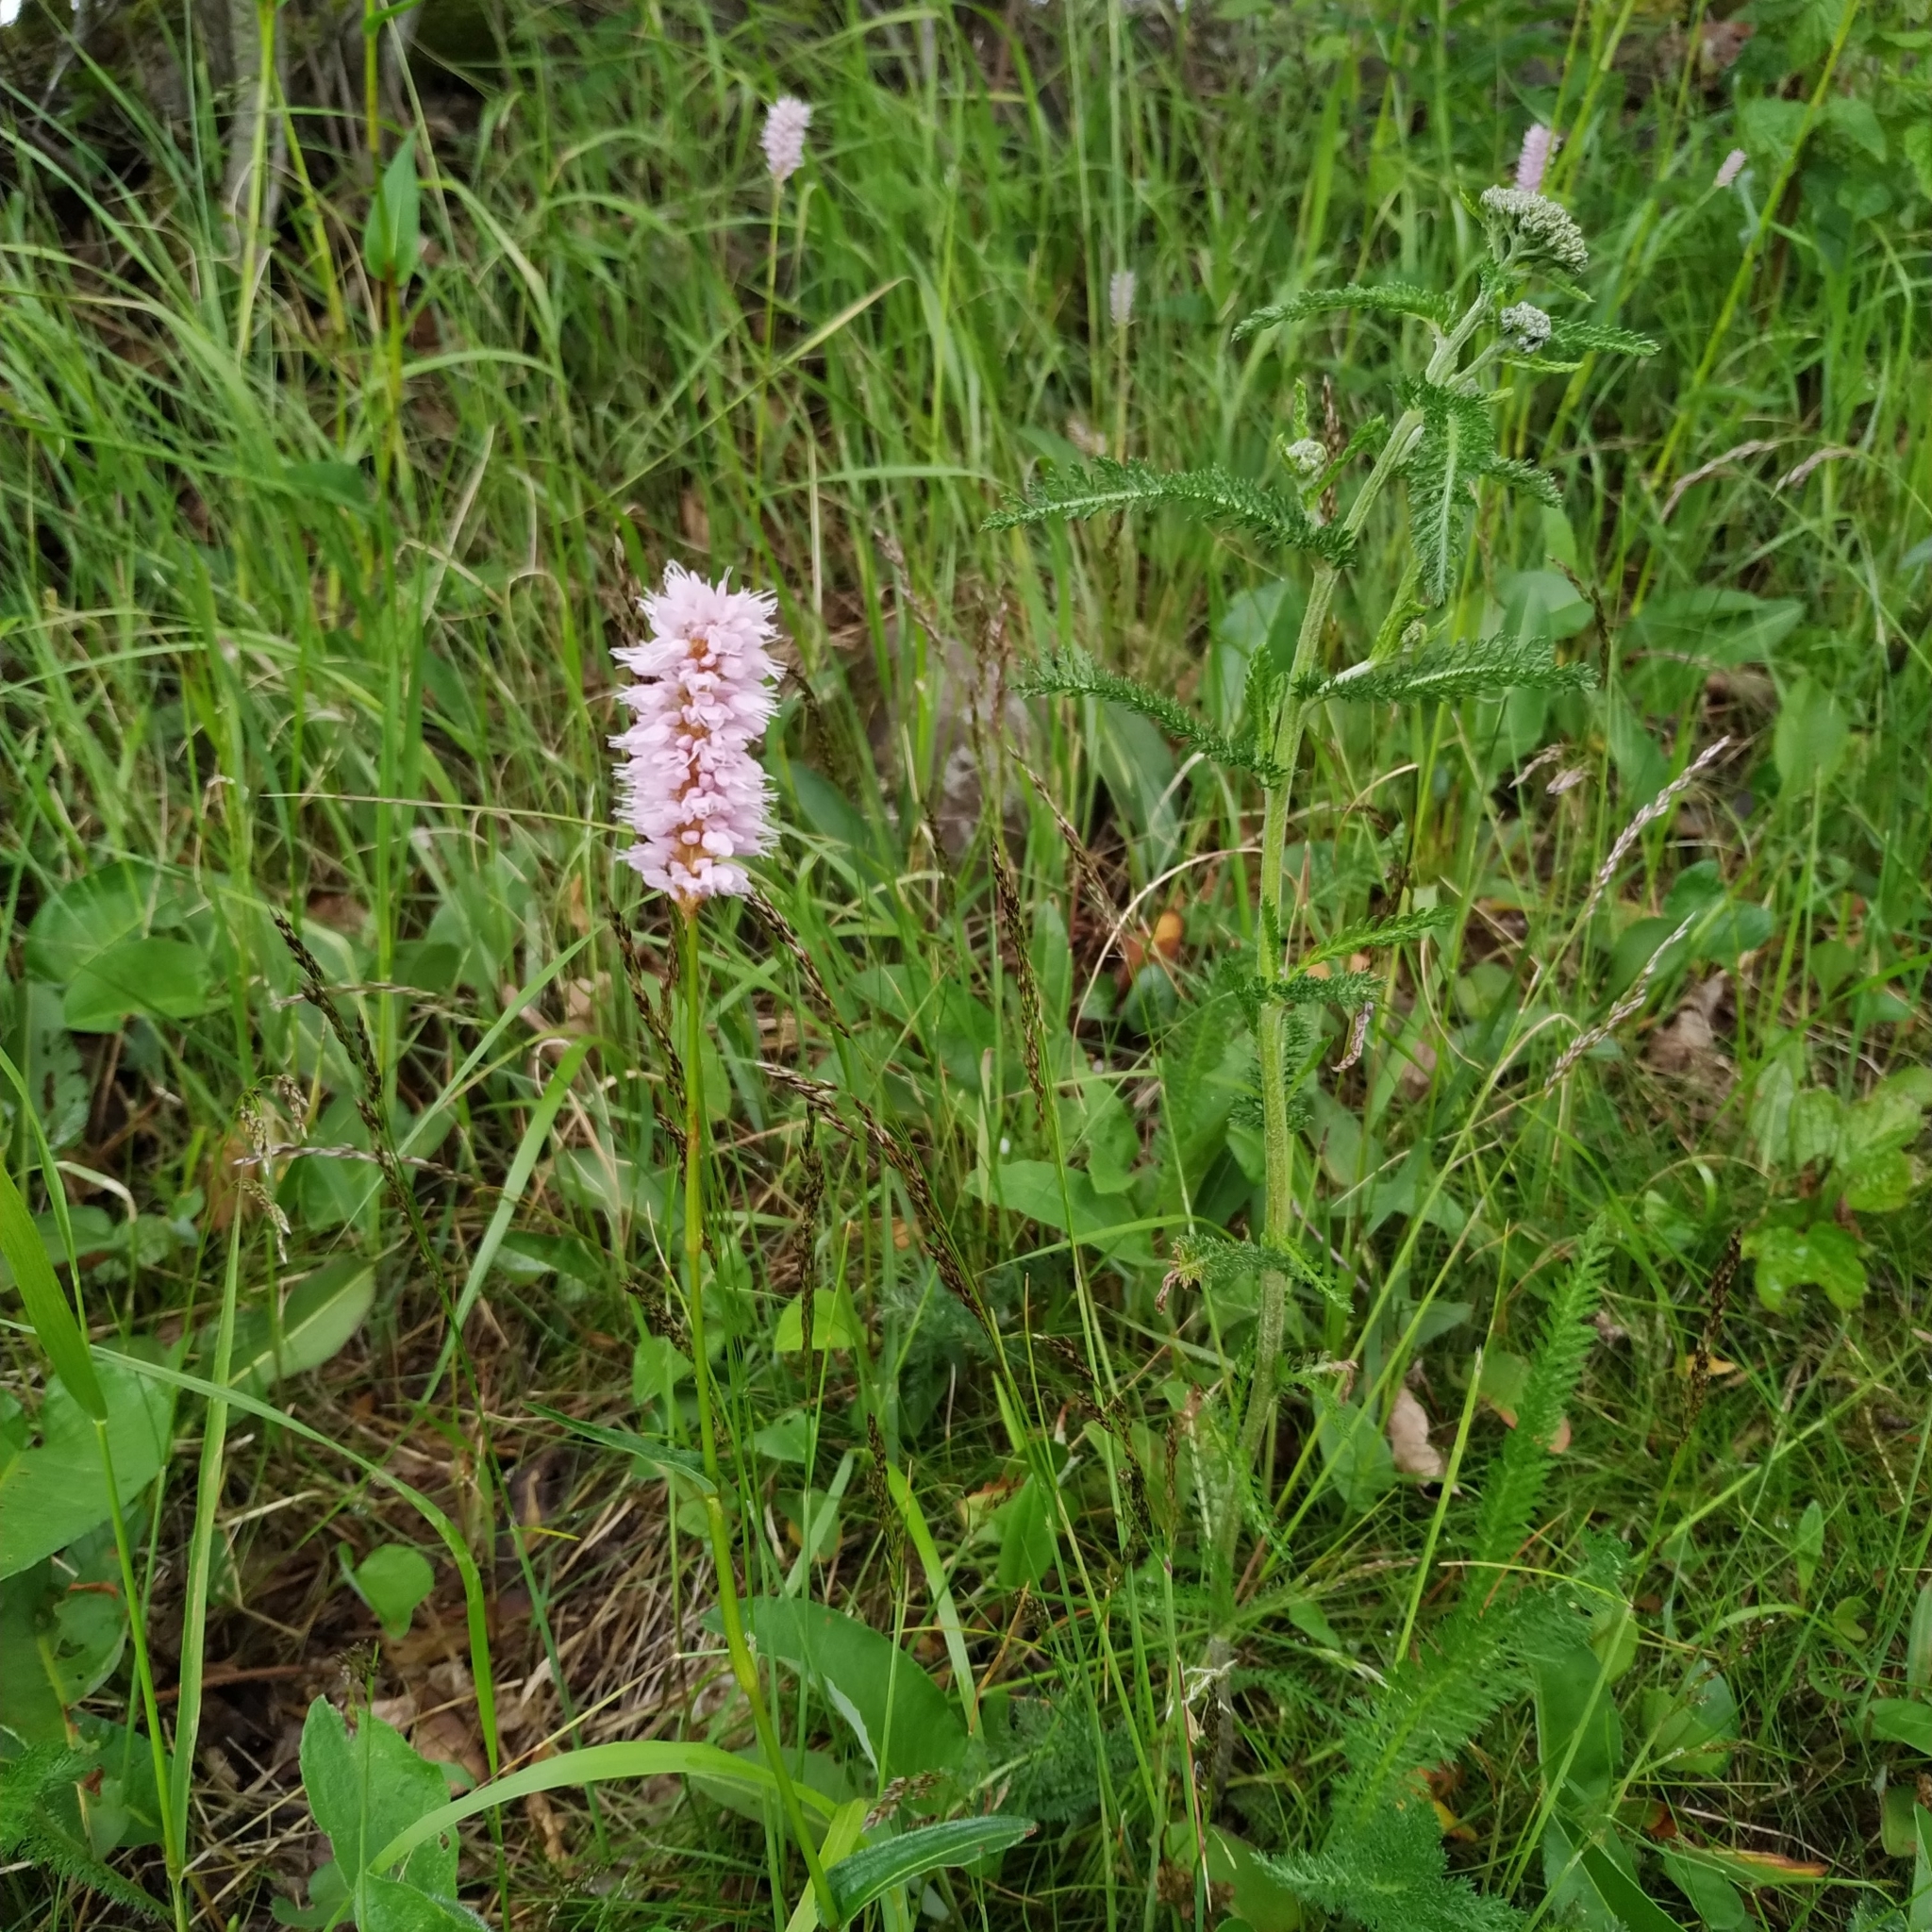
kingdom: Plantae
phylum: Tracheophyta
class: Magnoliopsida
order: Caryophyllales
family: Polygonaceae
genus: Bistorta
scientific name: Bistorta officinalis
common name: Common bistort
